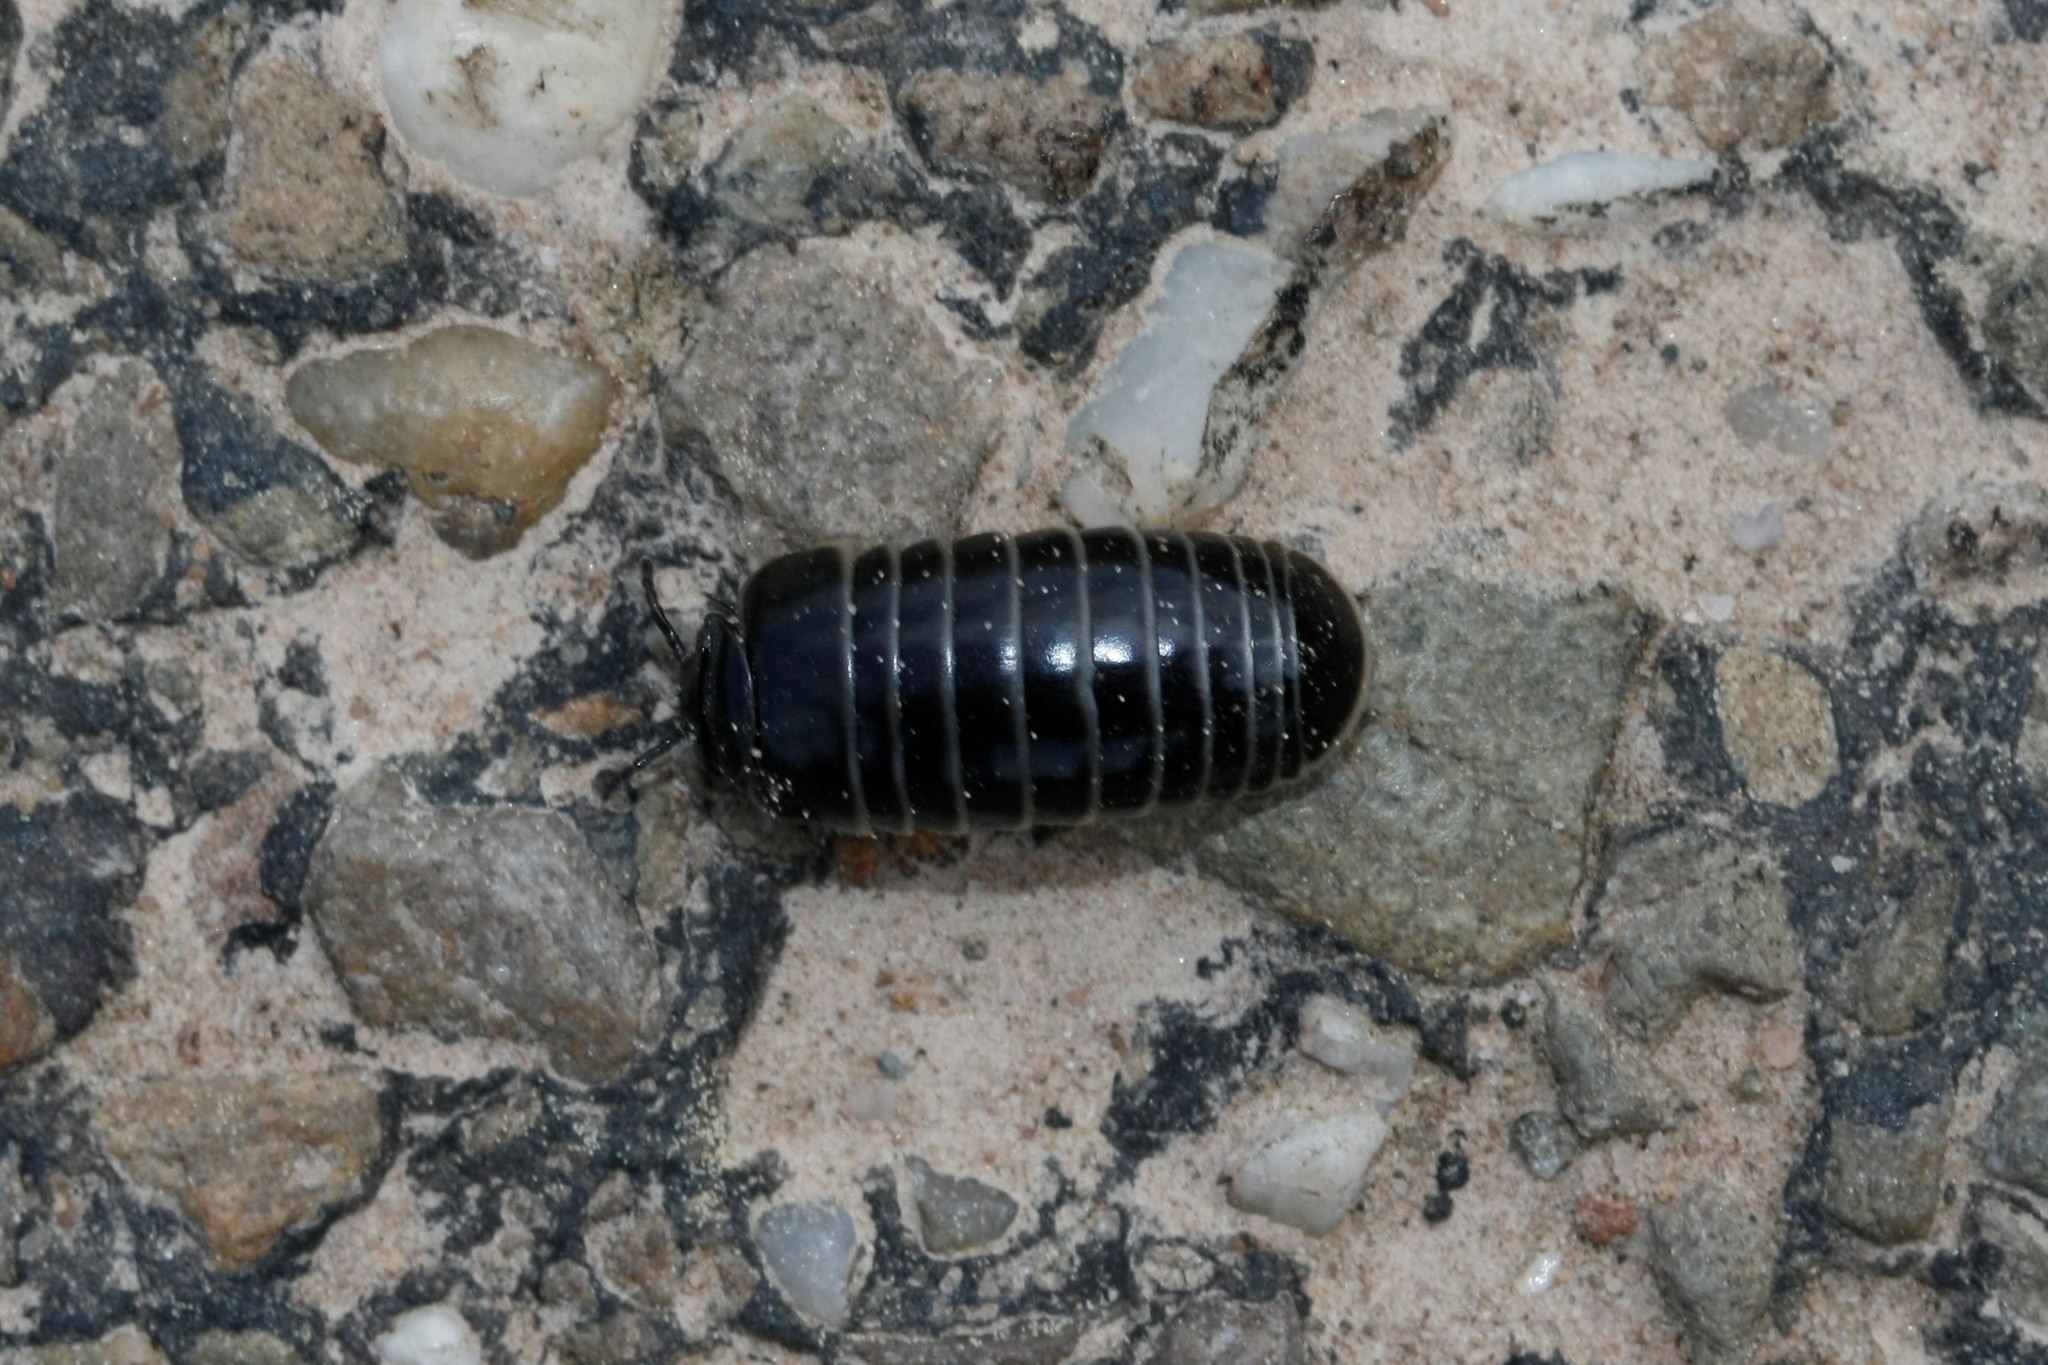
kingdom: Animalia
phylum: Arthropoda
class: Diplopoda
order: Glomerida
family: Glomeridae
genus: Glomeris
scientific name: Glomeris marginata
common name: Bordered pill millipede
